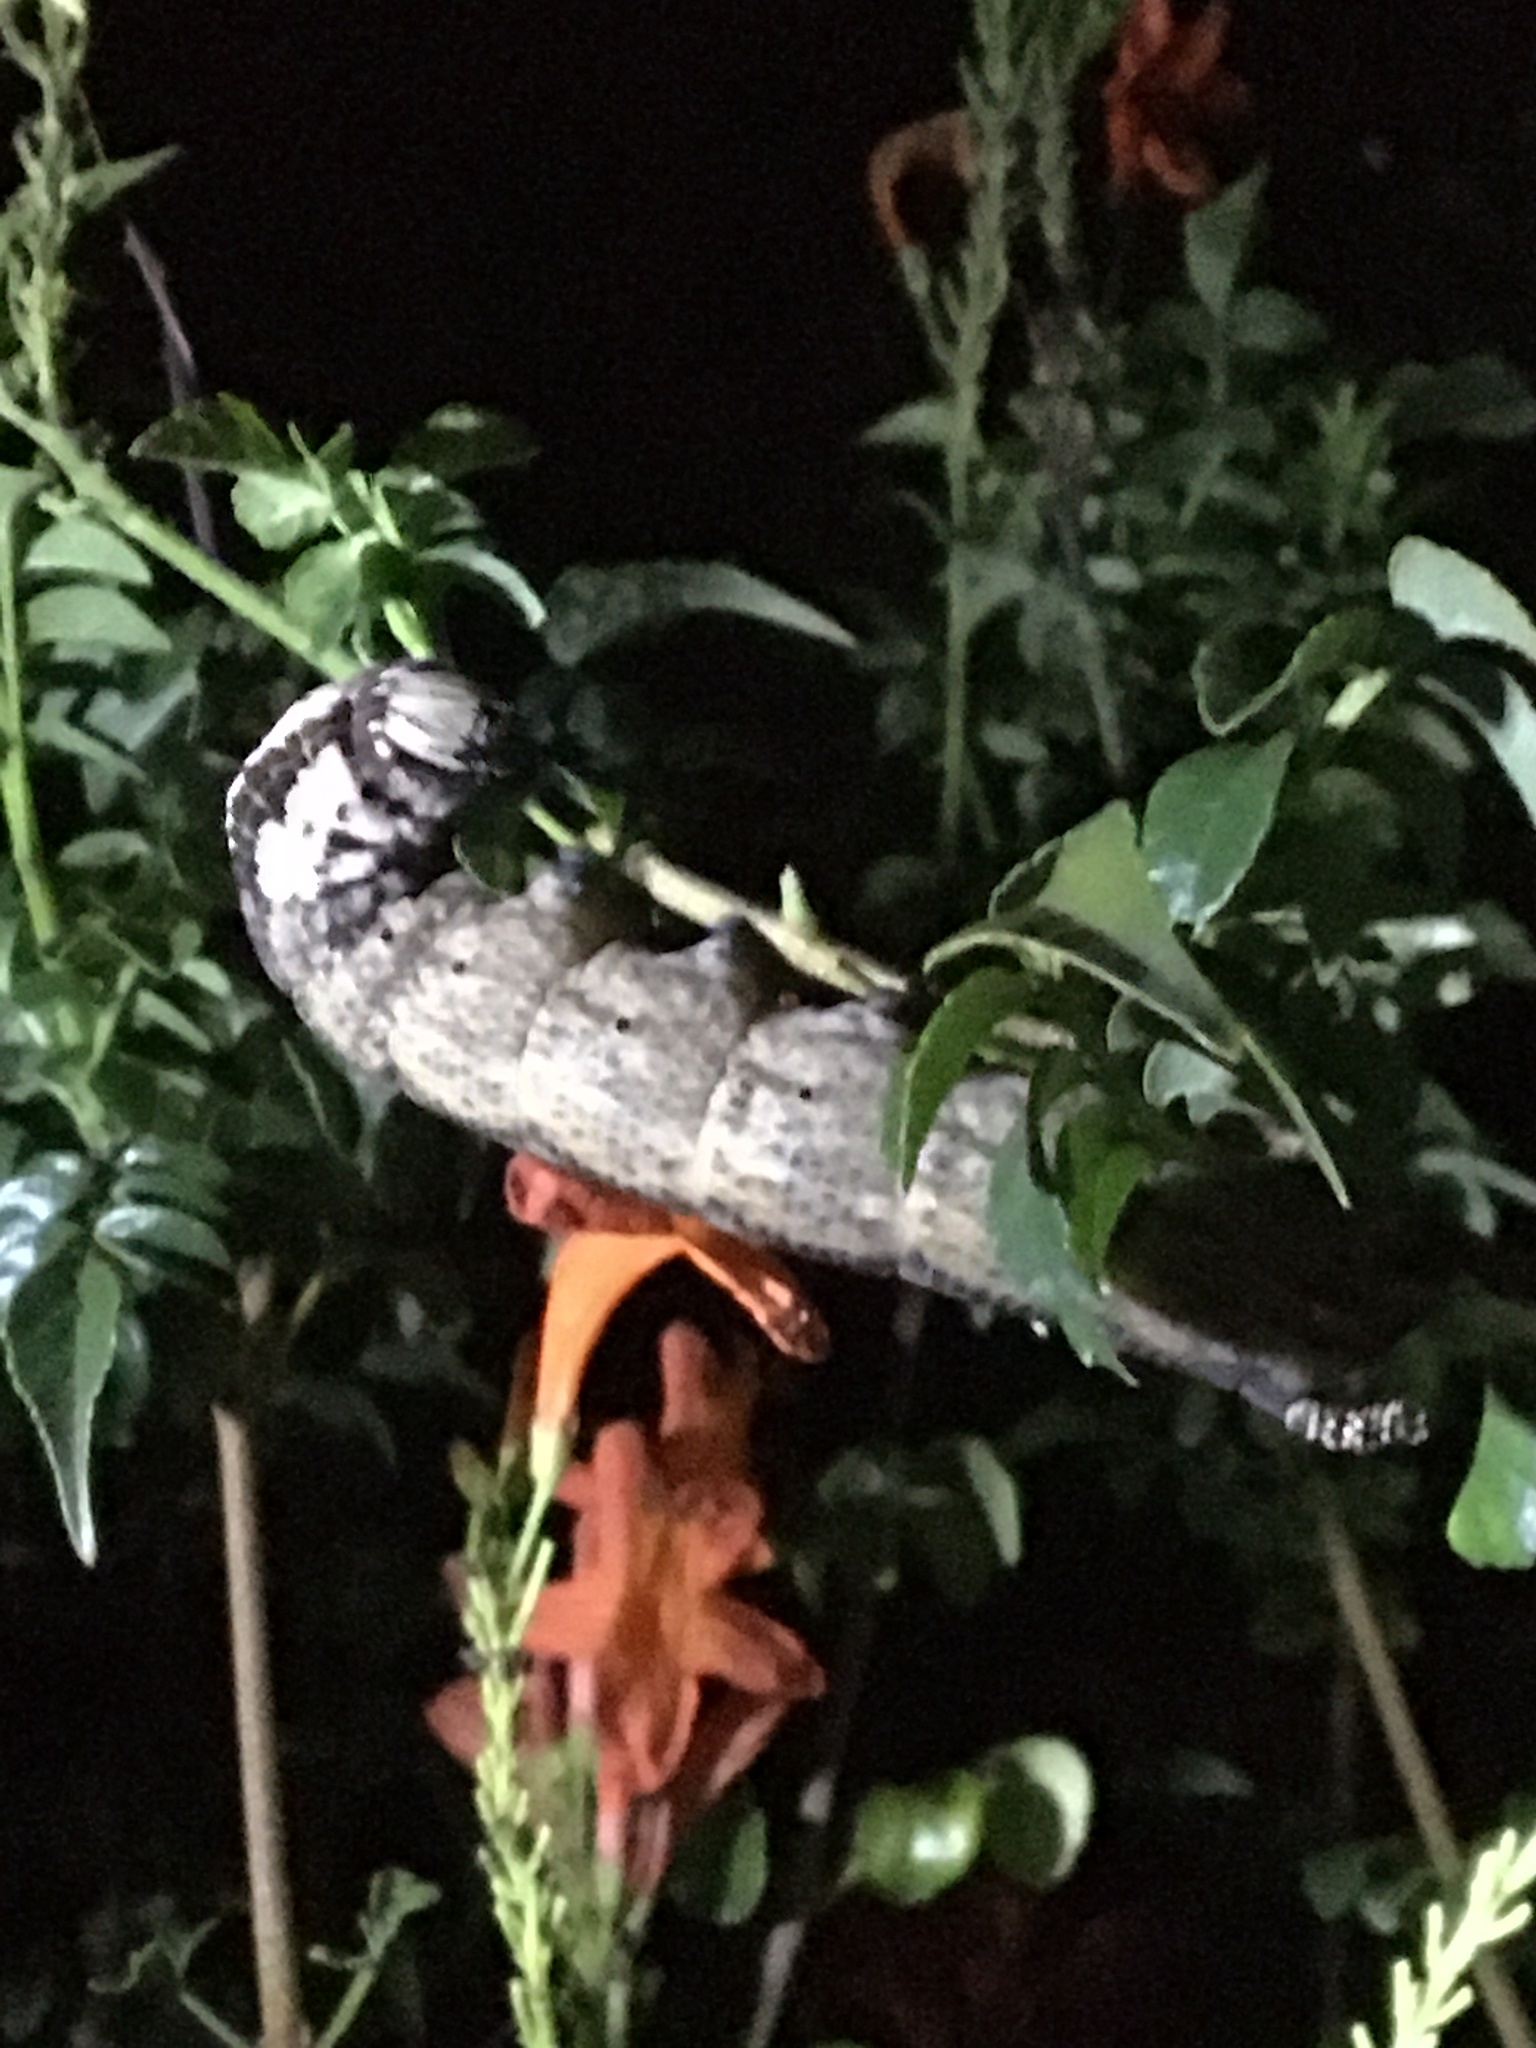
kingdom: Animalia
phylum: Arthropoda
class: Insecta
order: Lepidoptera
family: Sphingidae
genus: Acherontia
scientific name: Acherontia atropos
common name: Death's-head hawk moth
